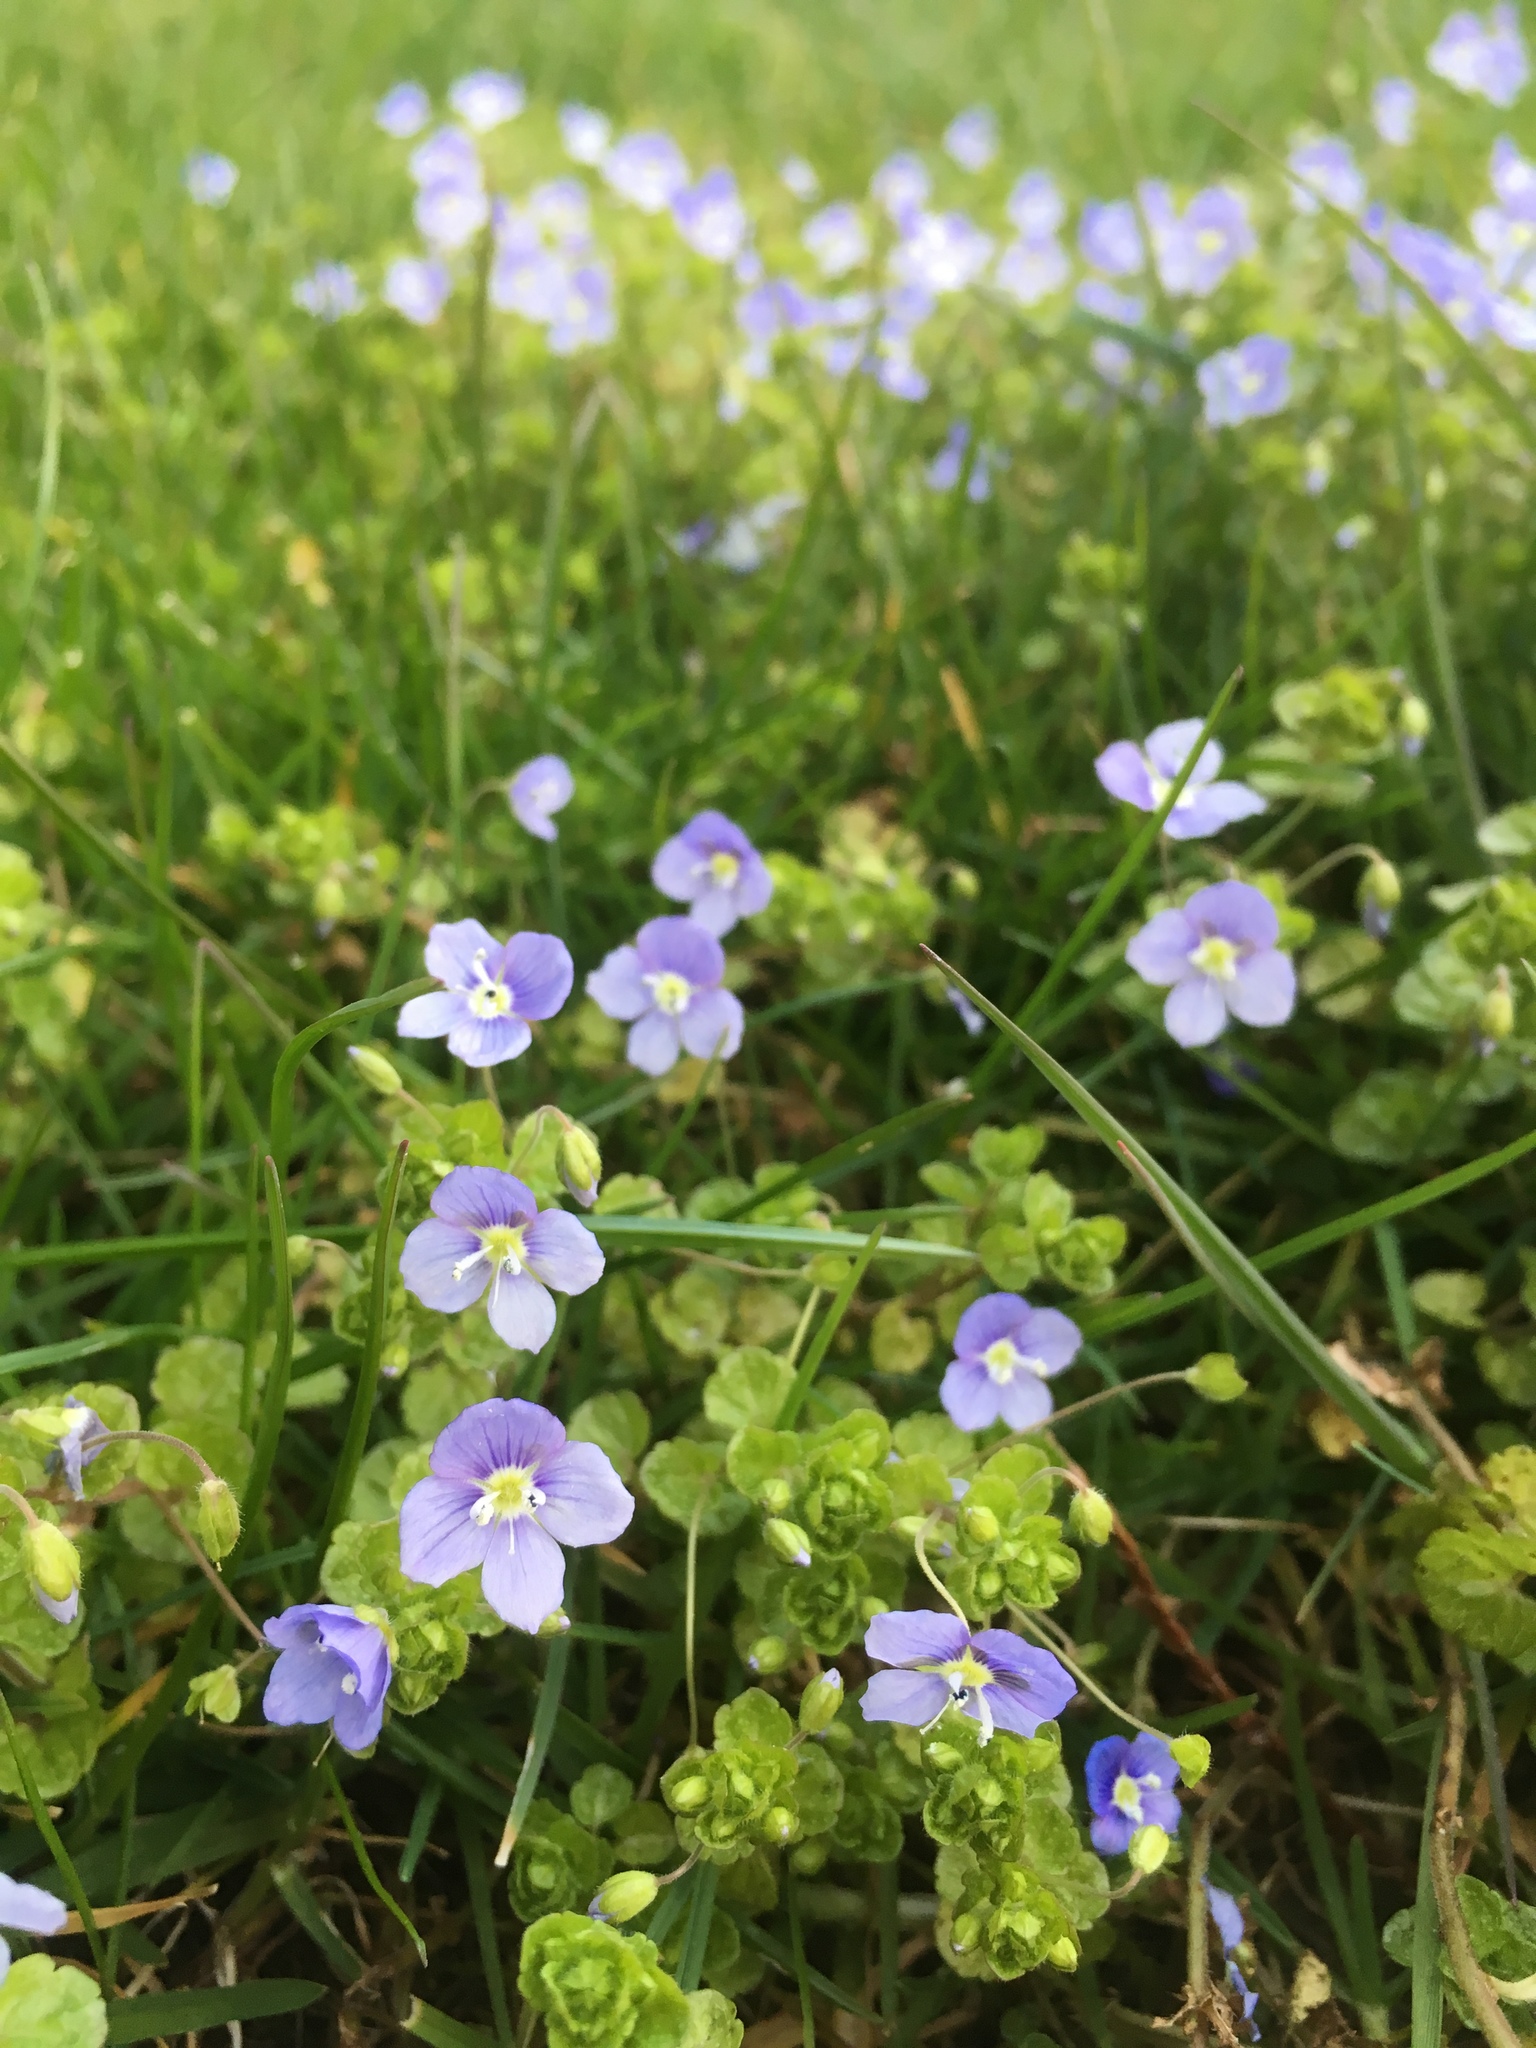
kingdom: Plantae
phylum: Tracheophyta
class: Magnoliopsida
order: Lamiales
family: Plantaginaceae
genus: Veronica
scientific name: Veronica filiformis
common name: Slender speedwell
